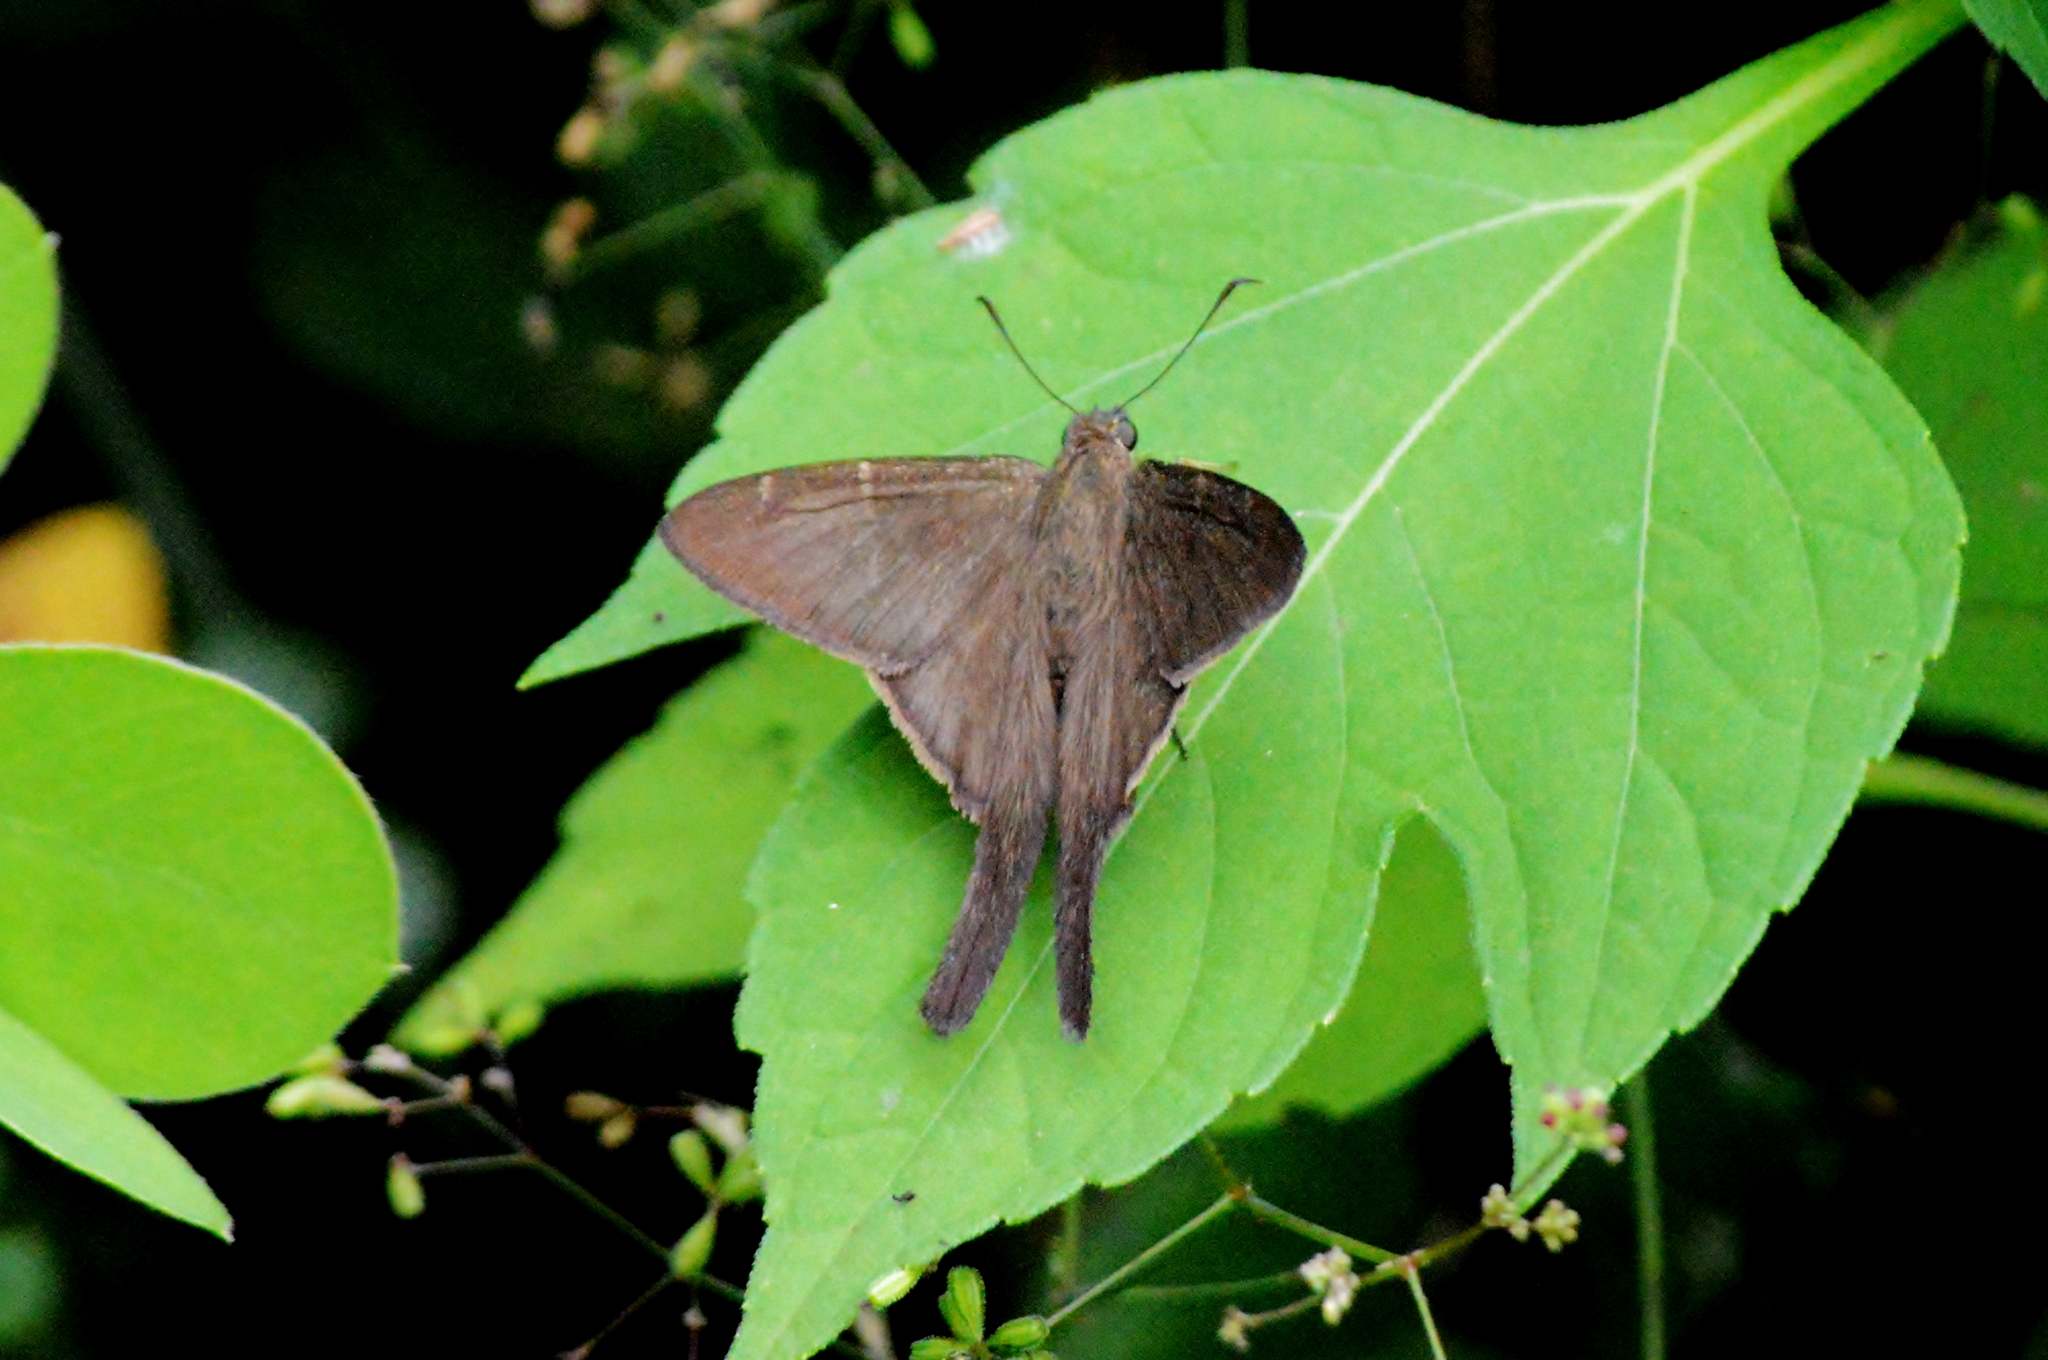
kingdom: Animalia
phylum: Arthropoda
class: Insecta
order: Lepidoptera
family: Hesperiidae
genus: Urbanus
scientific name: Urbanus procne
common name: Brown longtail
